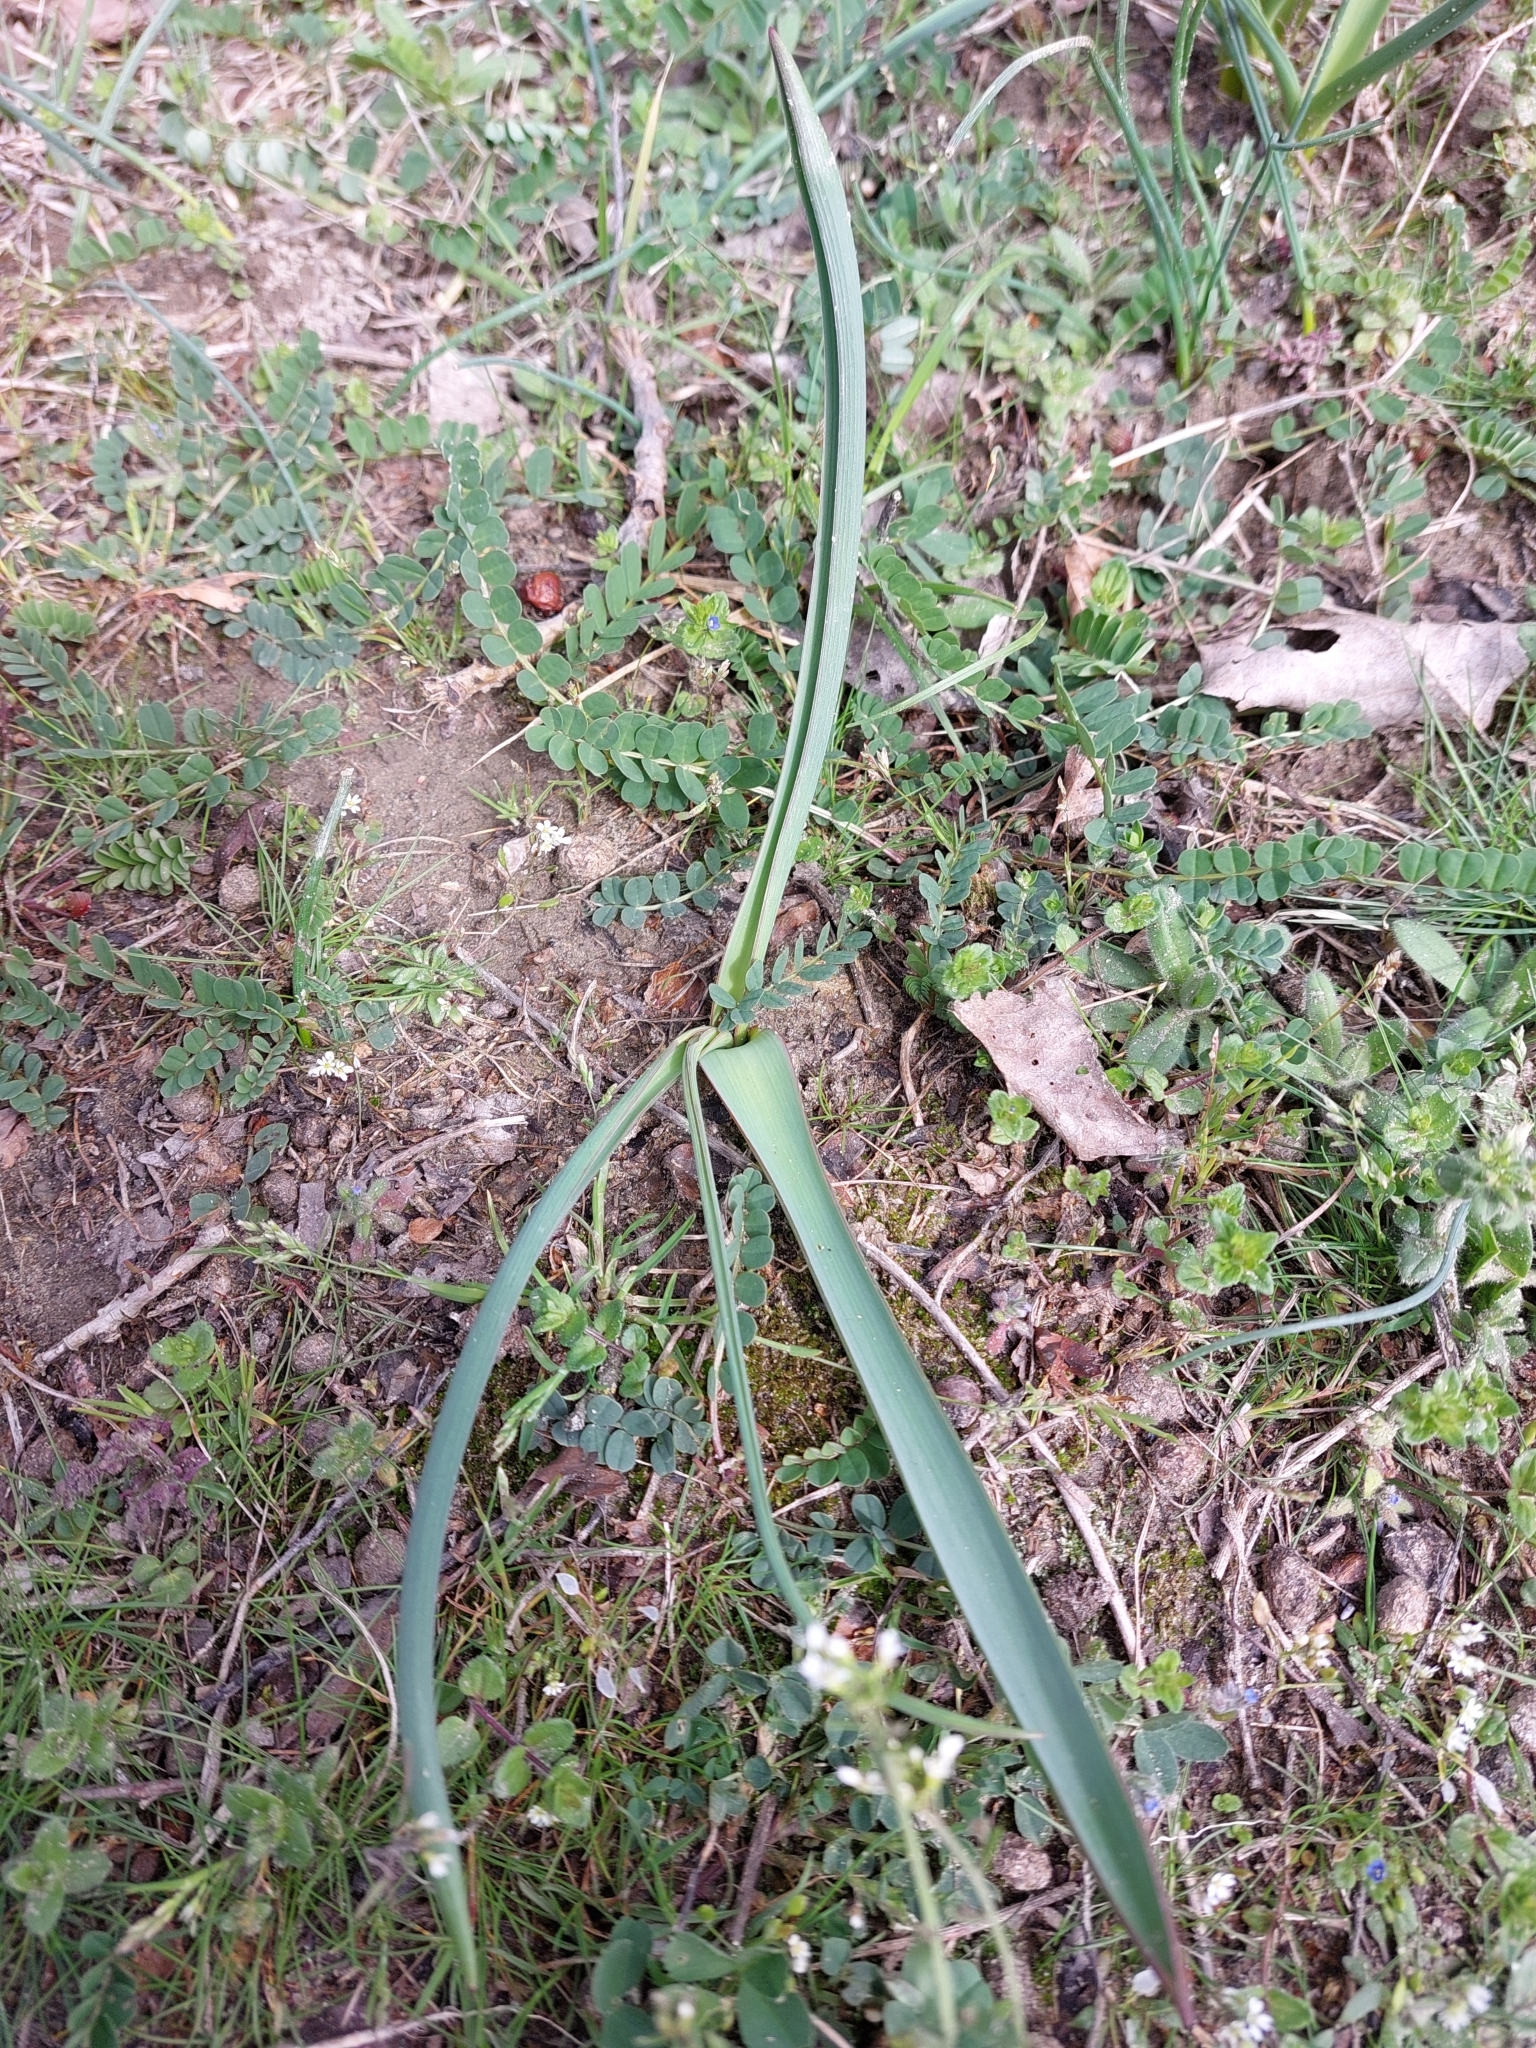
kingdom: Plantae
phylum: Tracheophyta
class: Liliopsida
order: Asparagales
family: Asparagaceae
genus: Muscari
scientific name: Muscari comosum
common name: Tassel hyacinth
